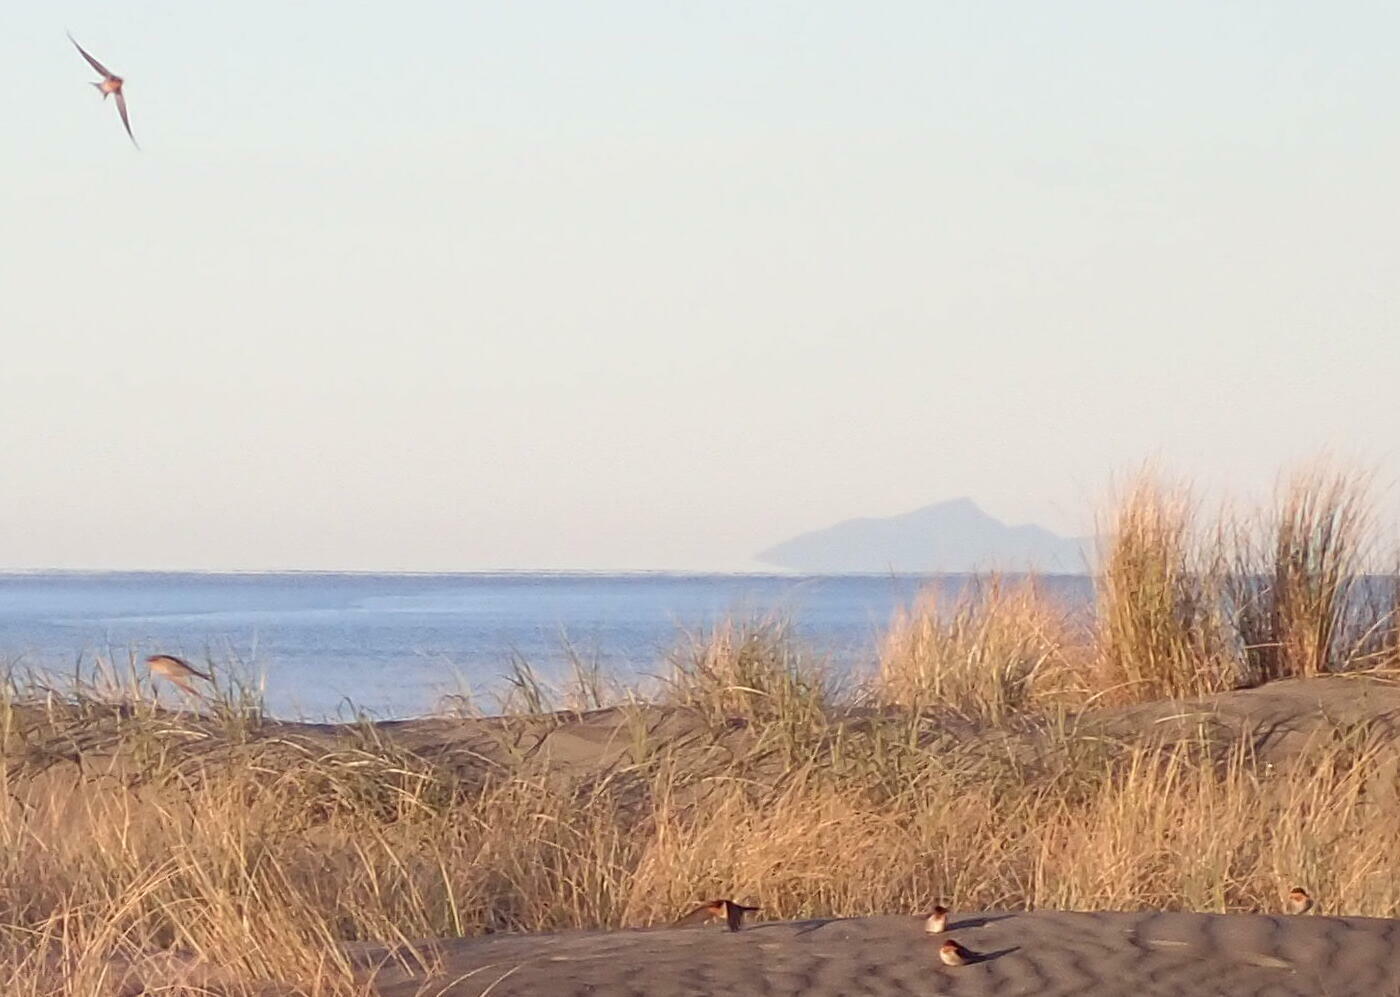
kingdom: Animalia
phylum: Chordata
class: Aves
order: Passeriformes
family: Hirundinidae
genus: Hirundo
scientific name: Hirundo neoxena
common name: Welcome swallow
